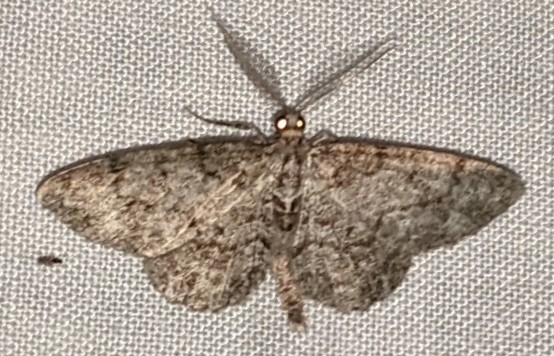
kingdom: Animalia
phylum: Arthropoda
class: Insecta
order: Lepidoptera
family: Geometridae
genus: Protoboarmia
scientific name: Protoboarmia porcelaria
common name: Porcelain gray
